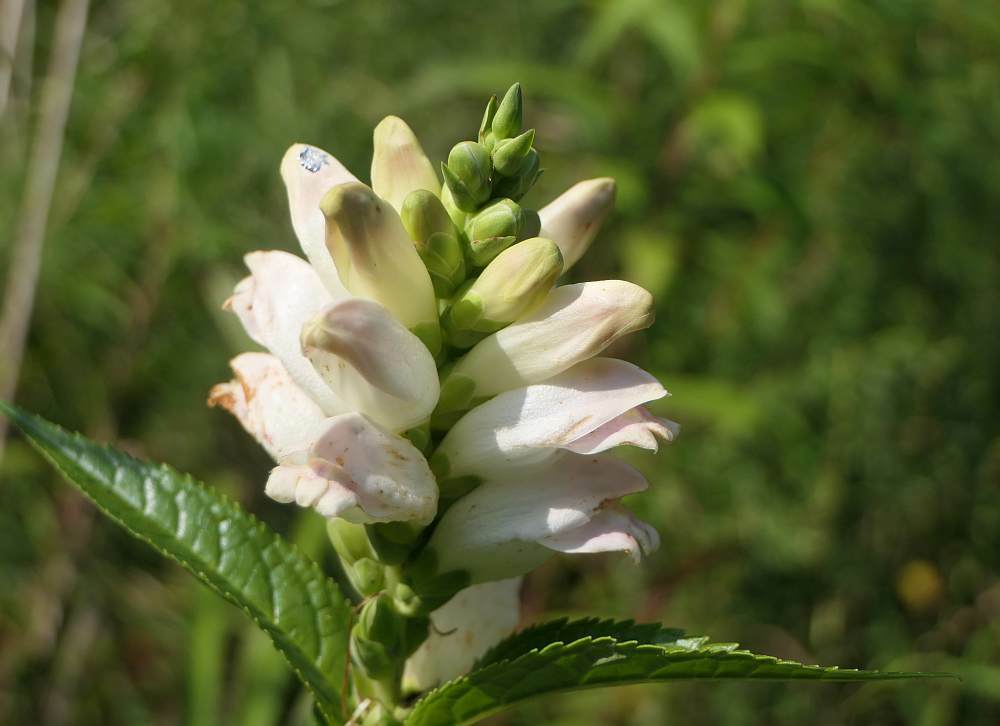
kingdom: Plantae
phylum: Tracheophyta
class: Magnoliopsida
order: Lamiales
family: Plantaginaceae
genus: Chelone
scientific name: Chelone glabra
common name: Snakehead
